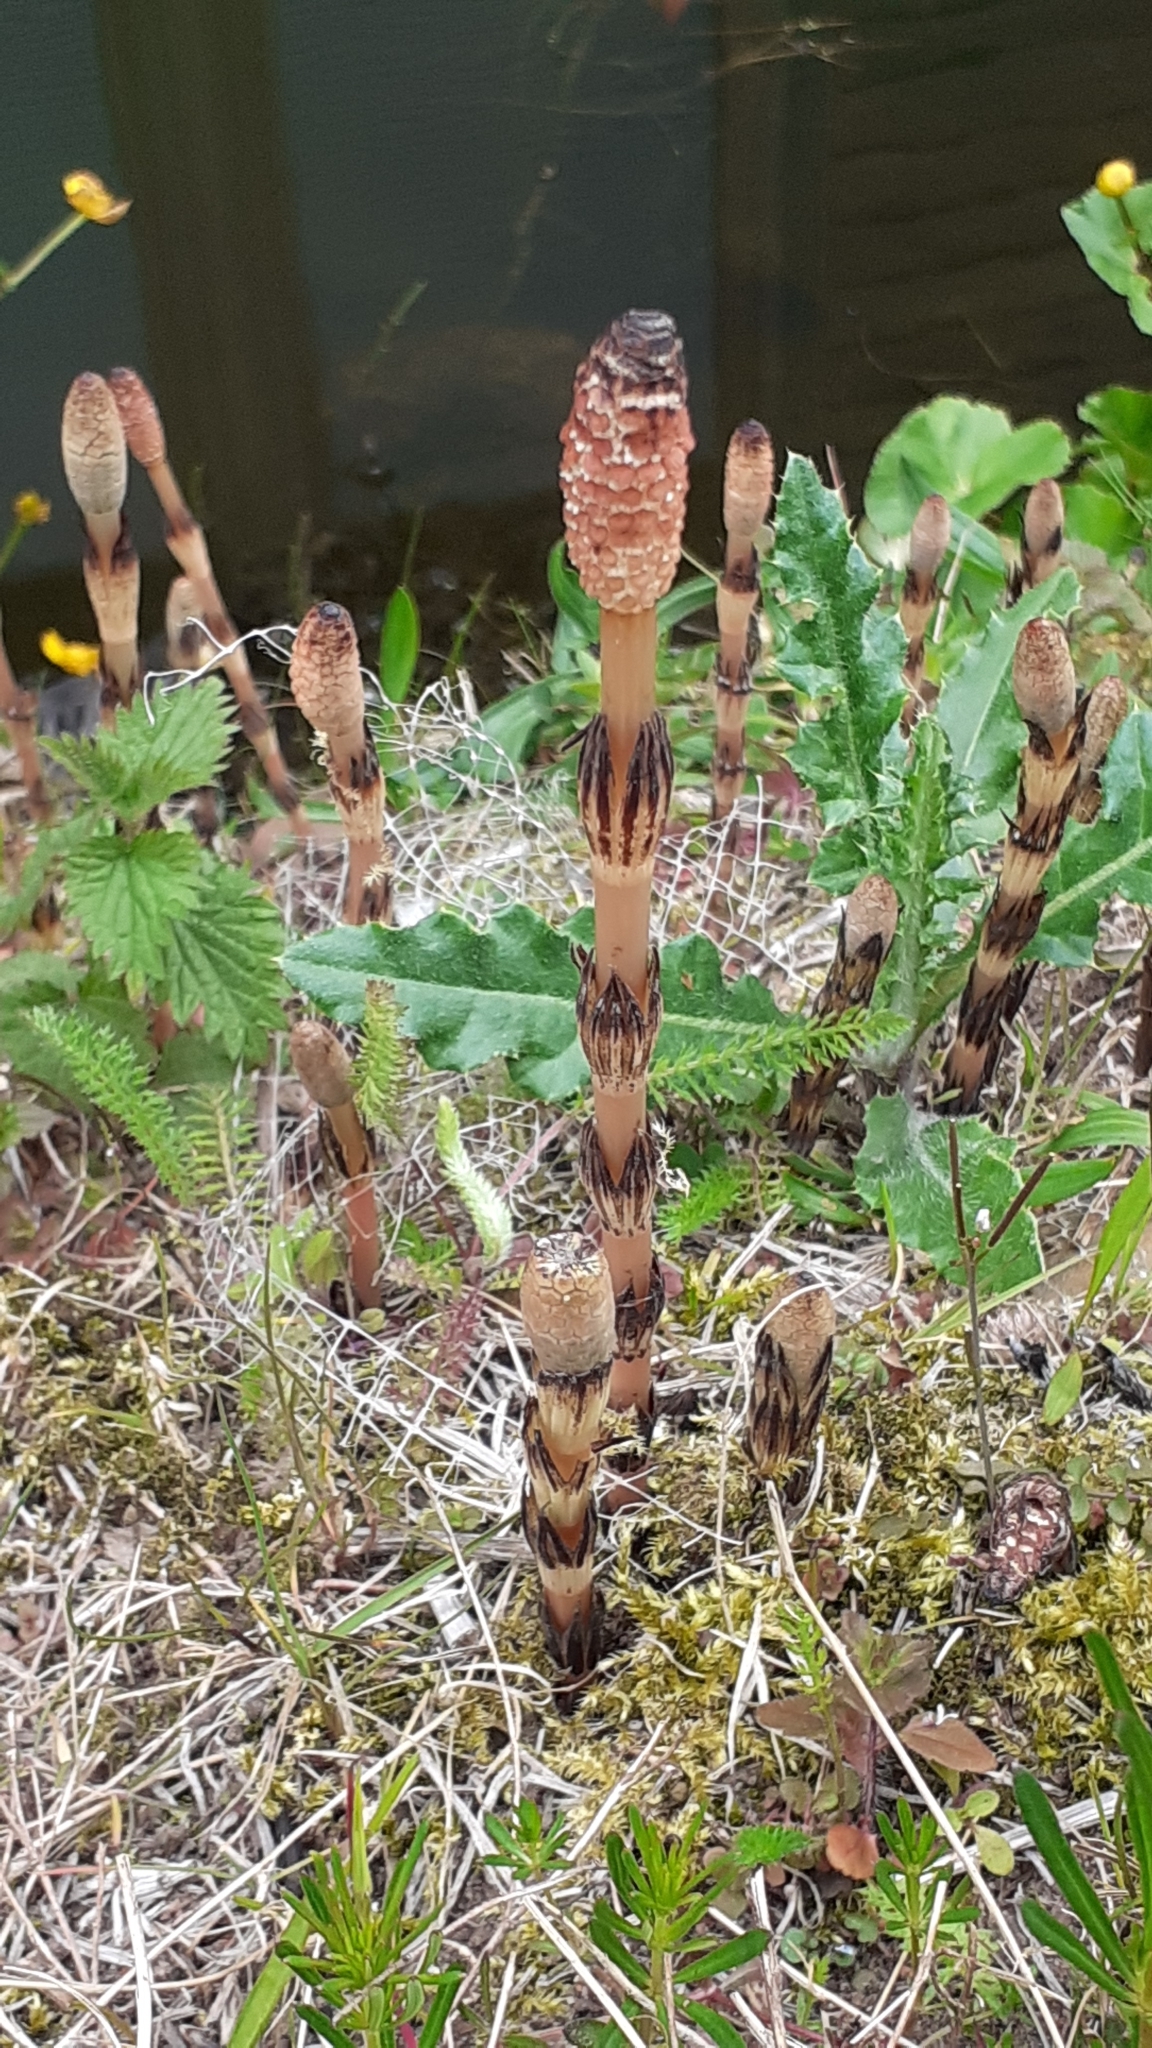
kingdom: Plantae
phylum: Tracheophyta
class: Polypodiopsida
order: Equisetales
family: Equisetaceae
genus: Equisetum
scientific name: Equisetum arvense
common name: Field horsetail
